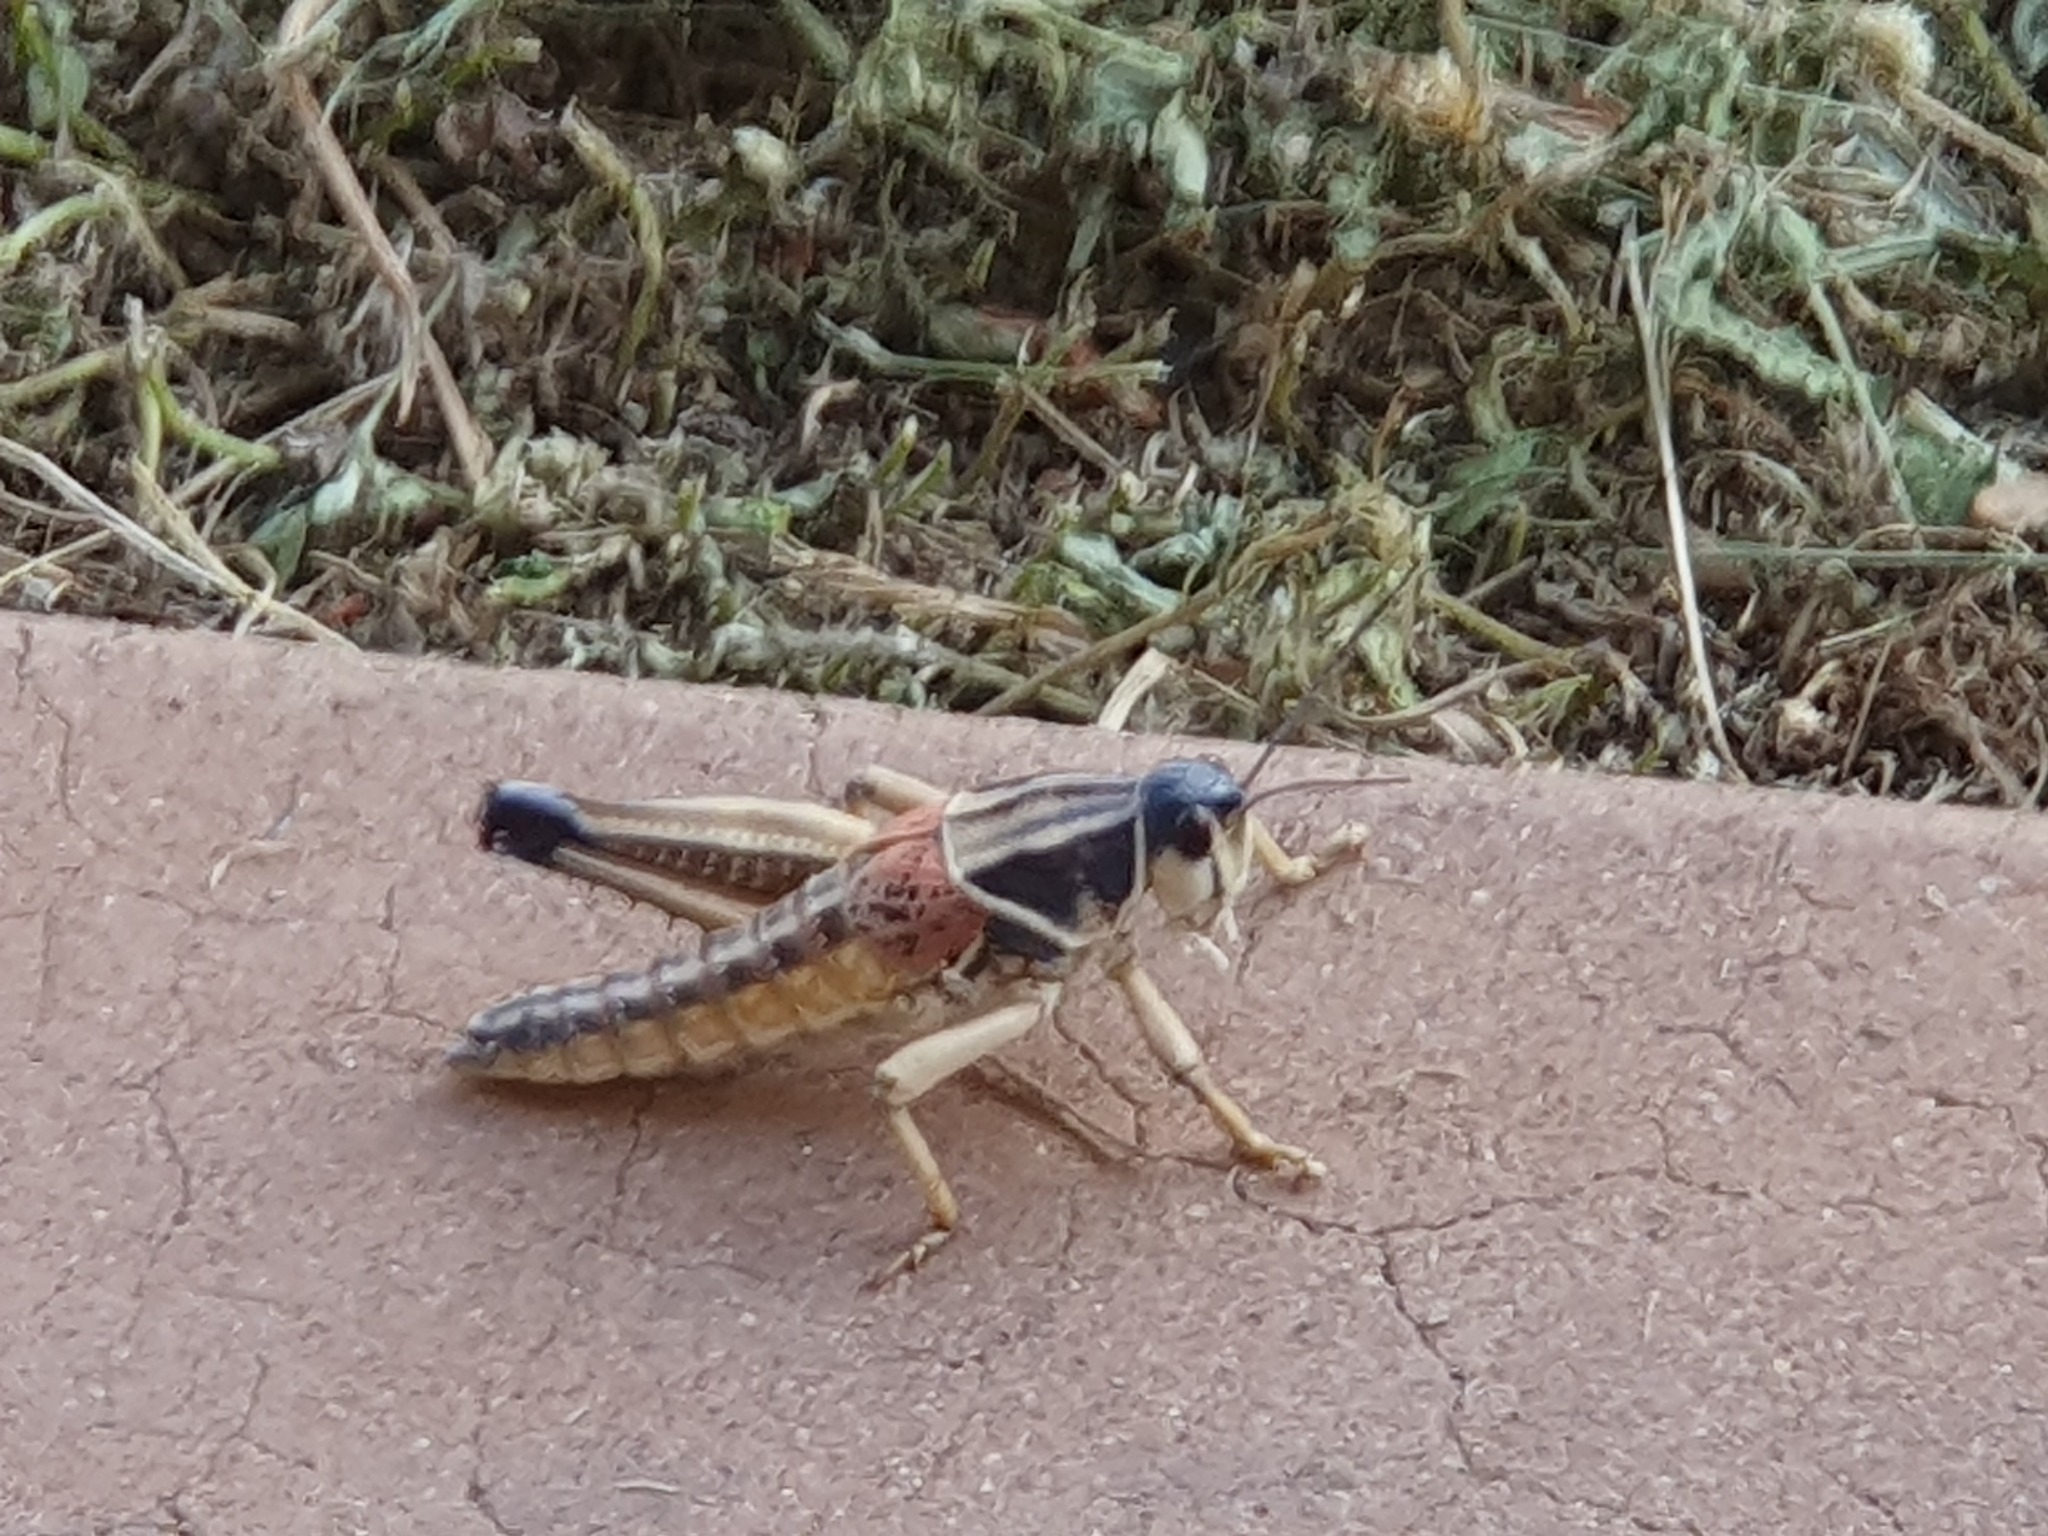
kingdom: Animalia
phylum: Arthropoda
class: Insecta
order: Orthoptera
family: Romaleidae
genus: Brachystola
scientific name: Brachystola magna
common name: Plains lubber grasshopper
